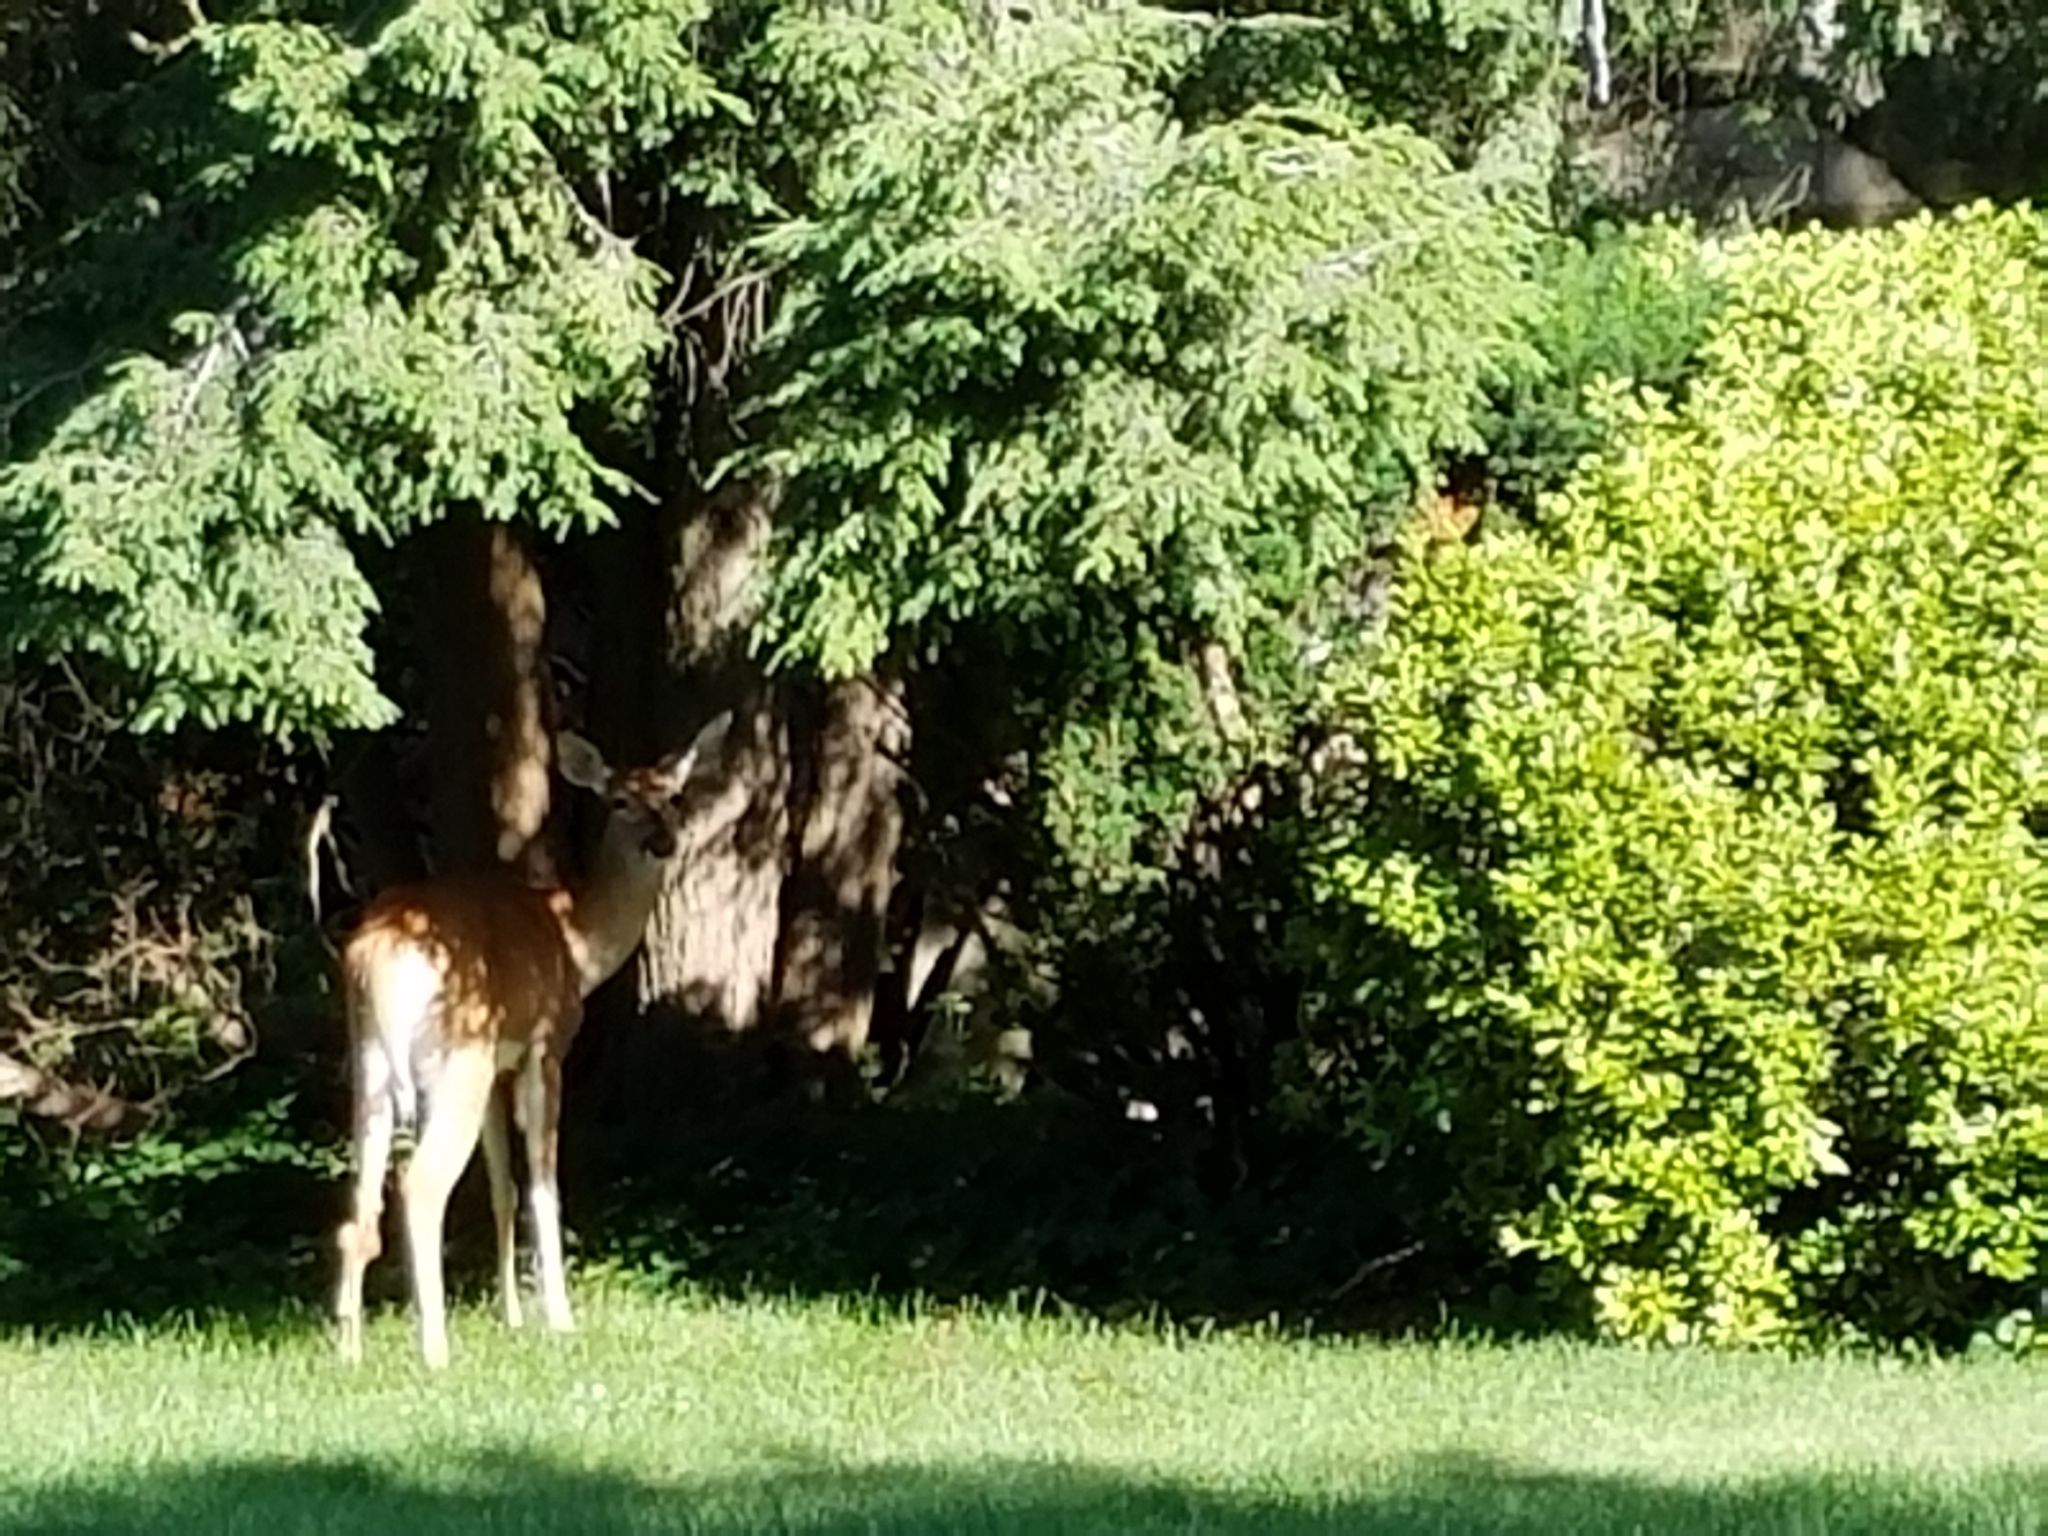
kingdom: Animalia
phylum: Chordata
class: Mammalia
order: Artiodactyla
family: Cervidae
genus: Odocoileus
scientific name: Odocoileus virginianus
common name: White-tailed deer
